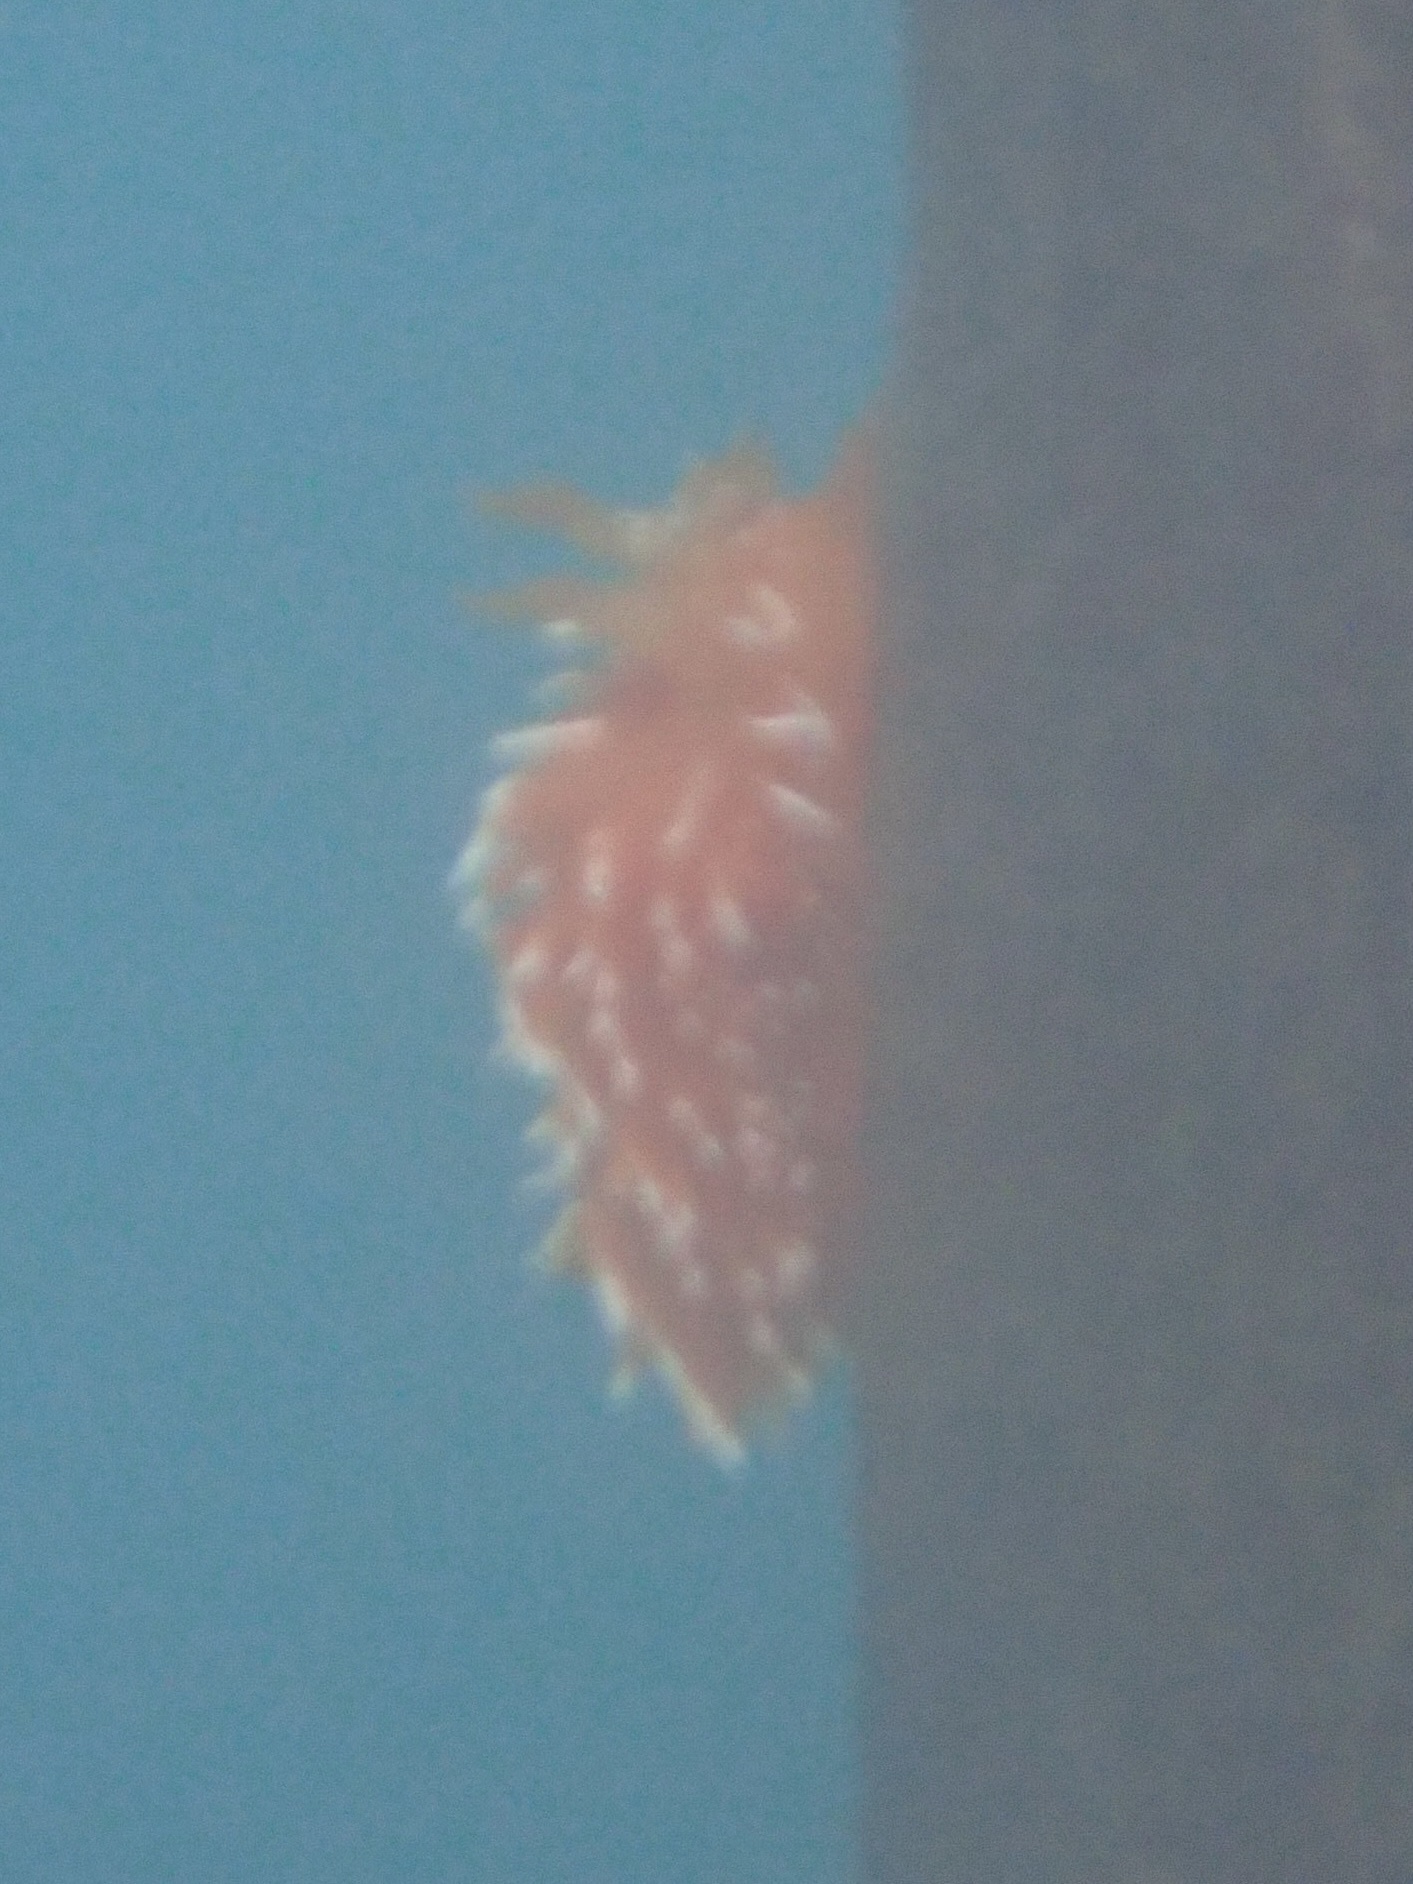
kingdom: Animalia
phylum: Mollusca
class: Gastropoda
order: Nudibranchia
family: Dironidae
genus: Dirona
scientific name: Dirona pellucida
